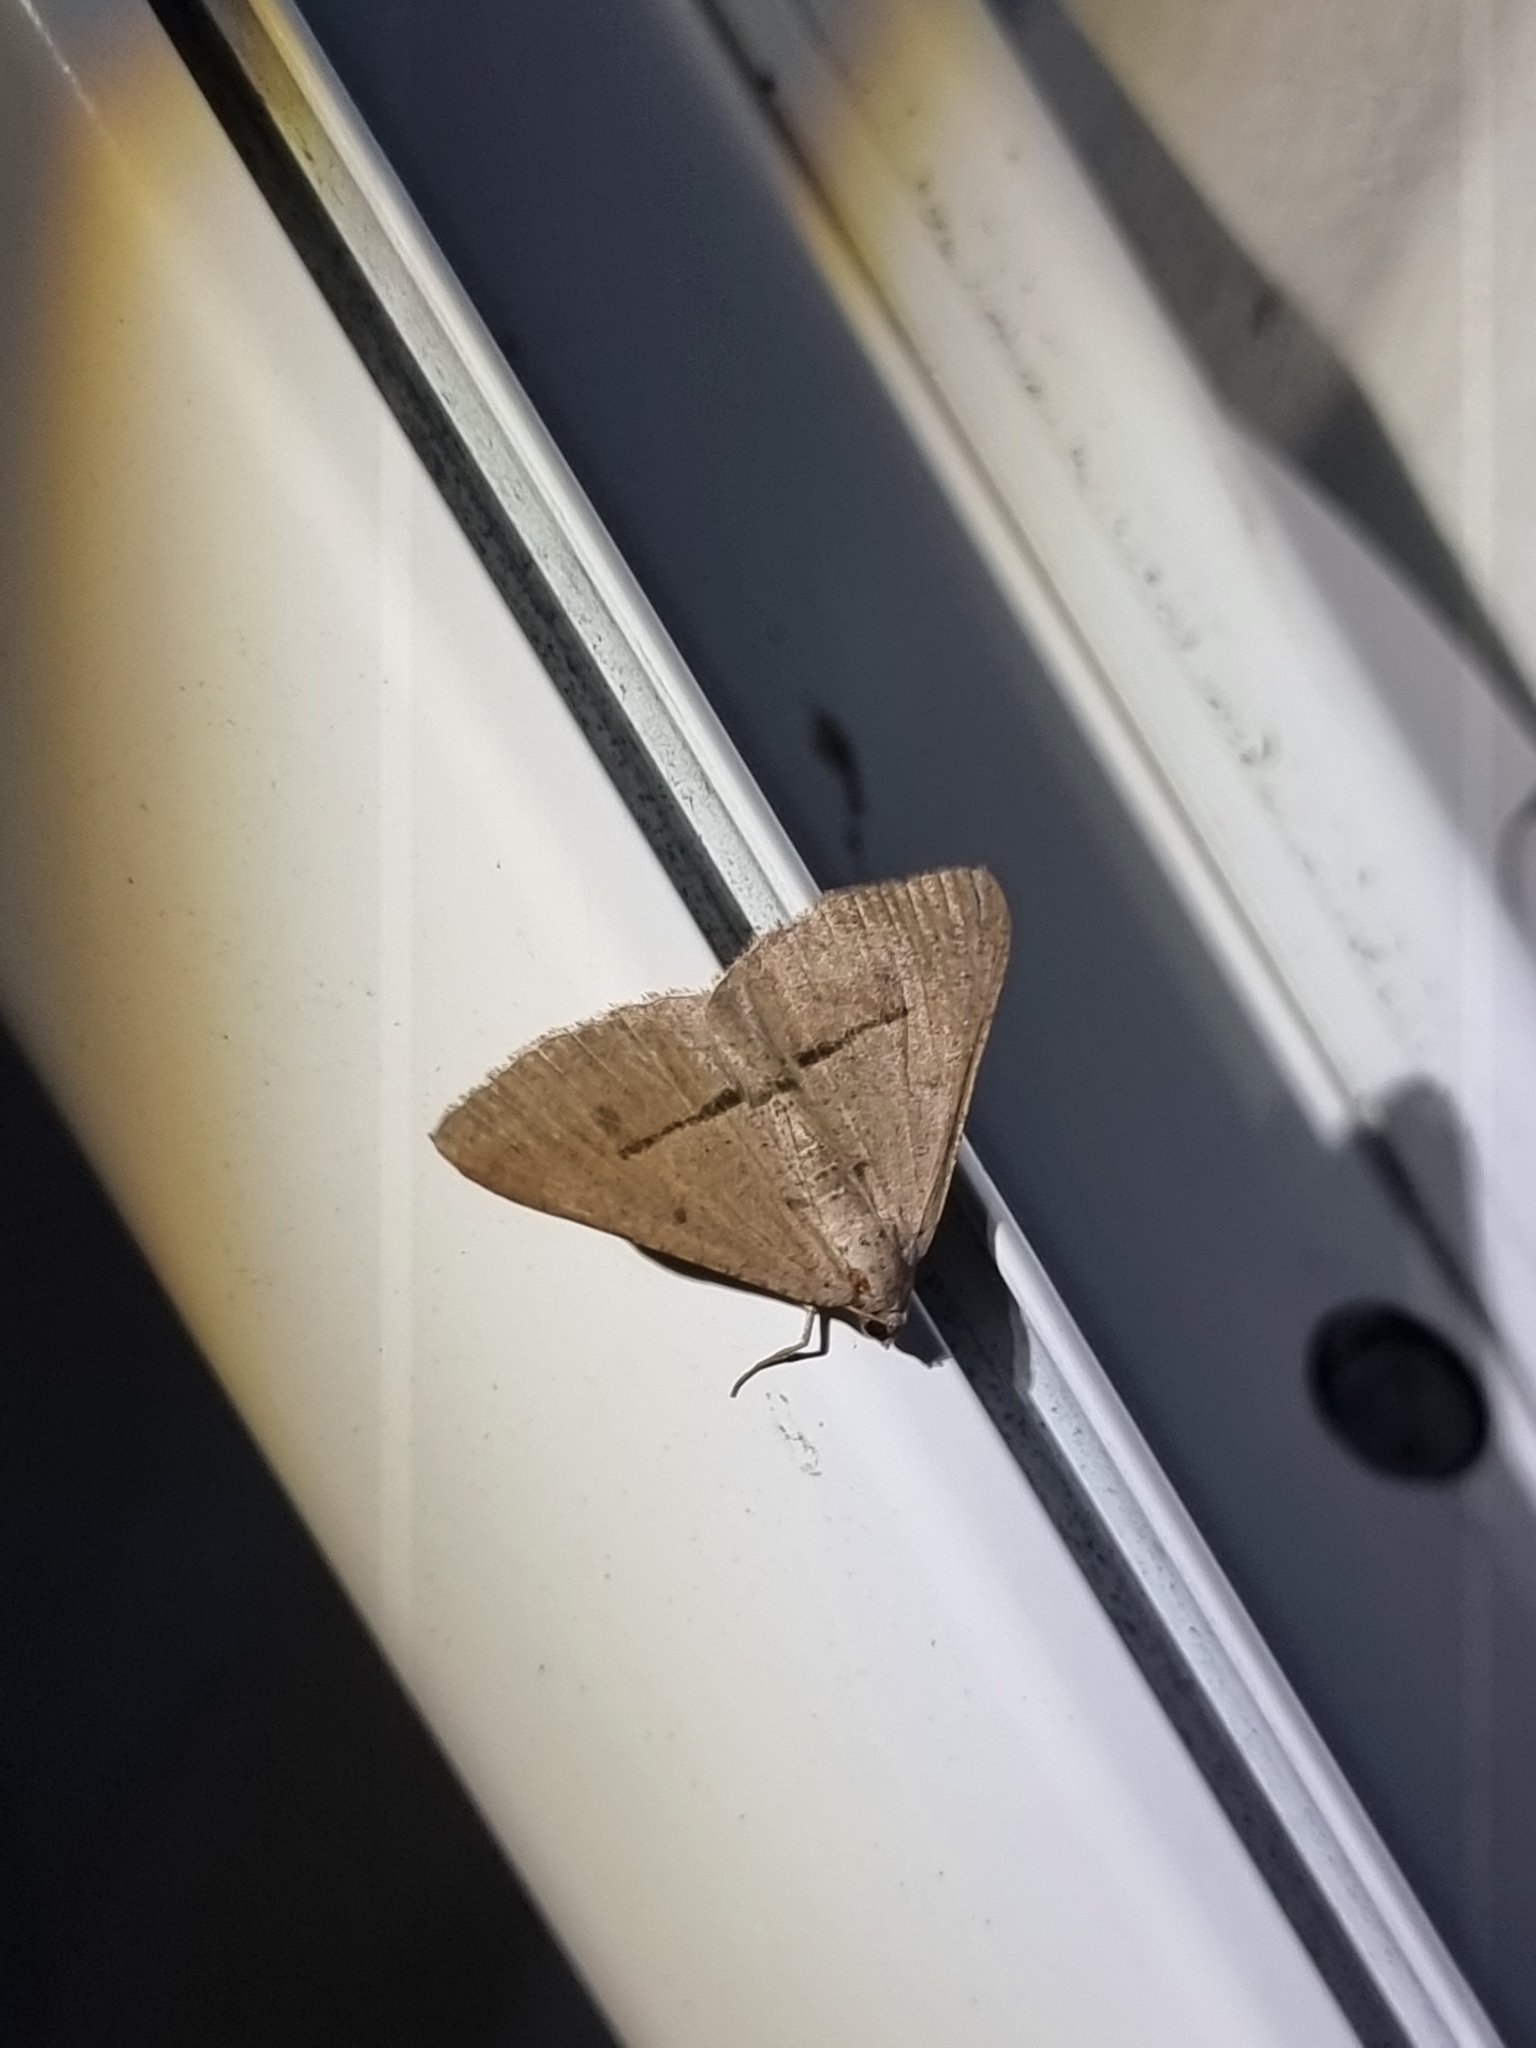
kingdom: Animalia
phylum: Arthropoda
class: Insecta
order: Lepidoptera
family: Geometridae
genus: Isturgia
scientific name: Isturgia
